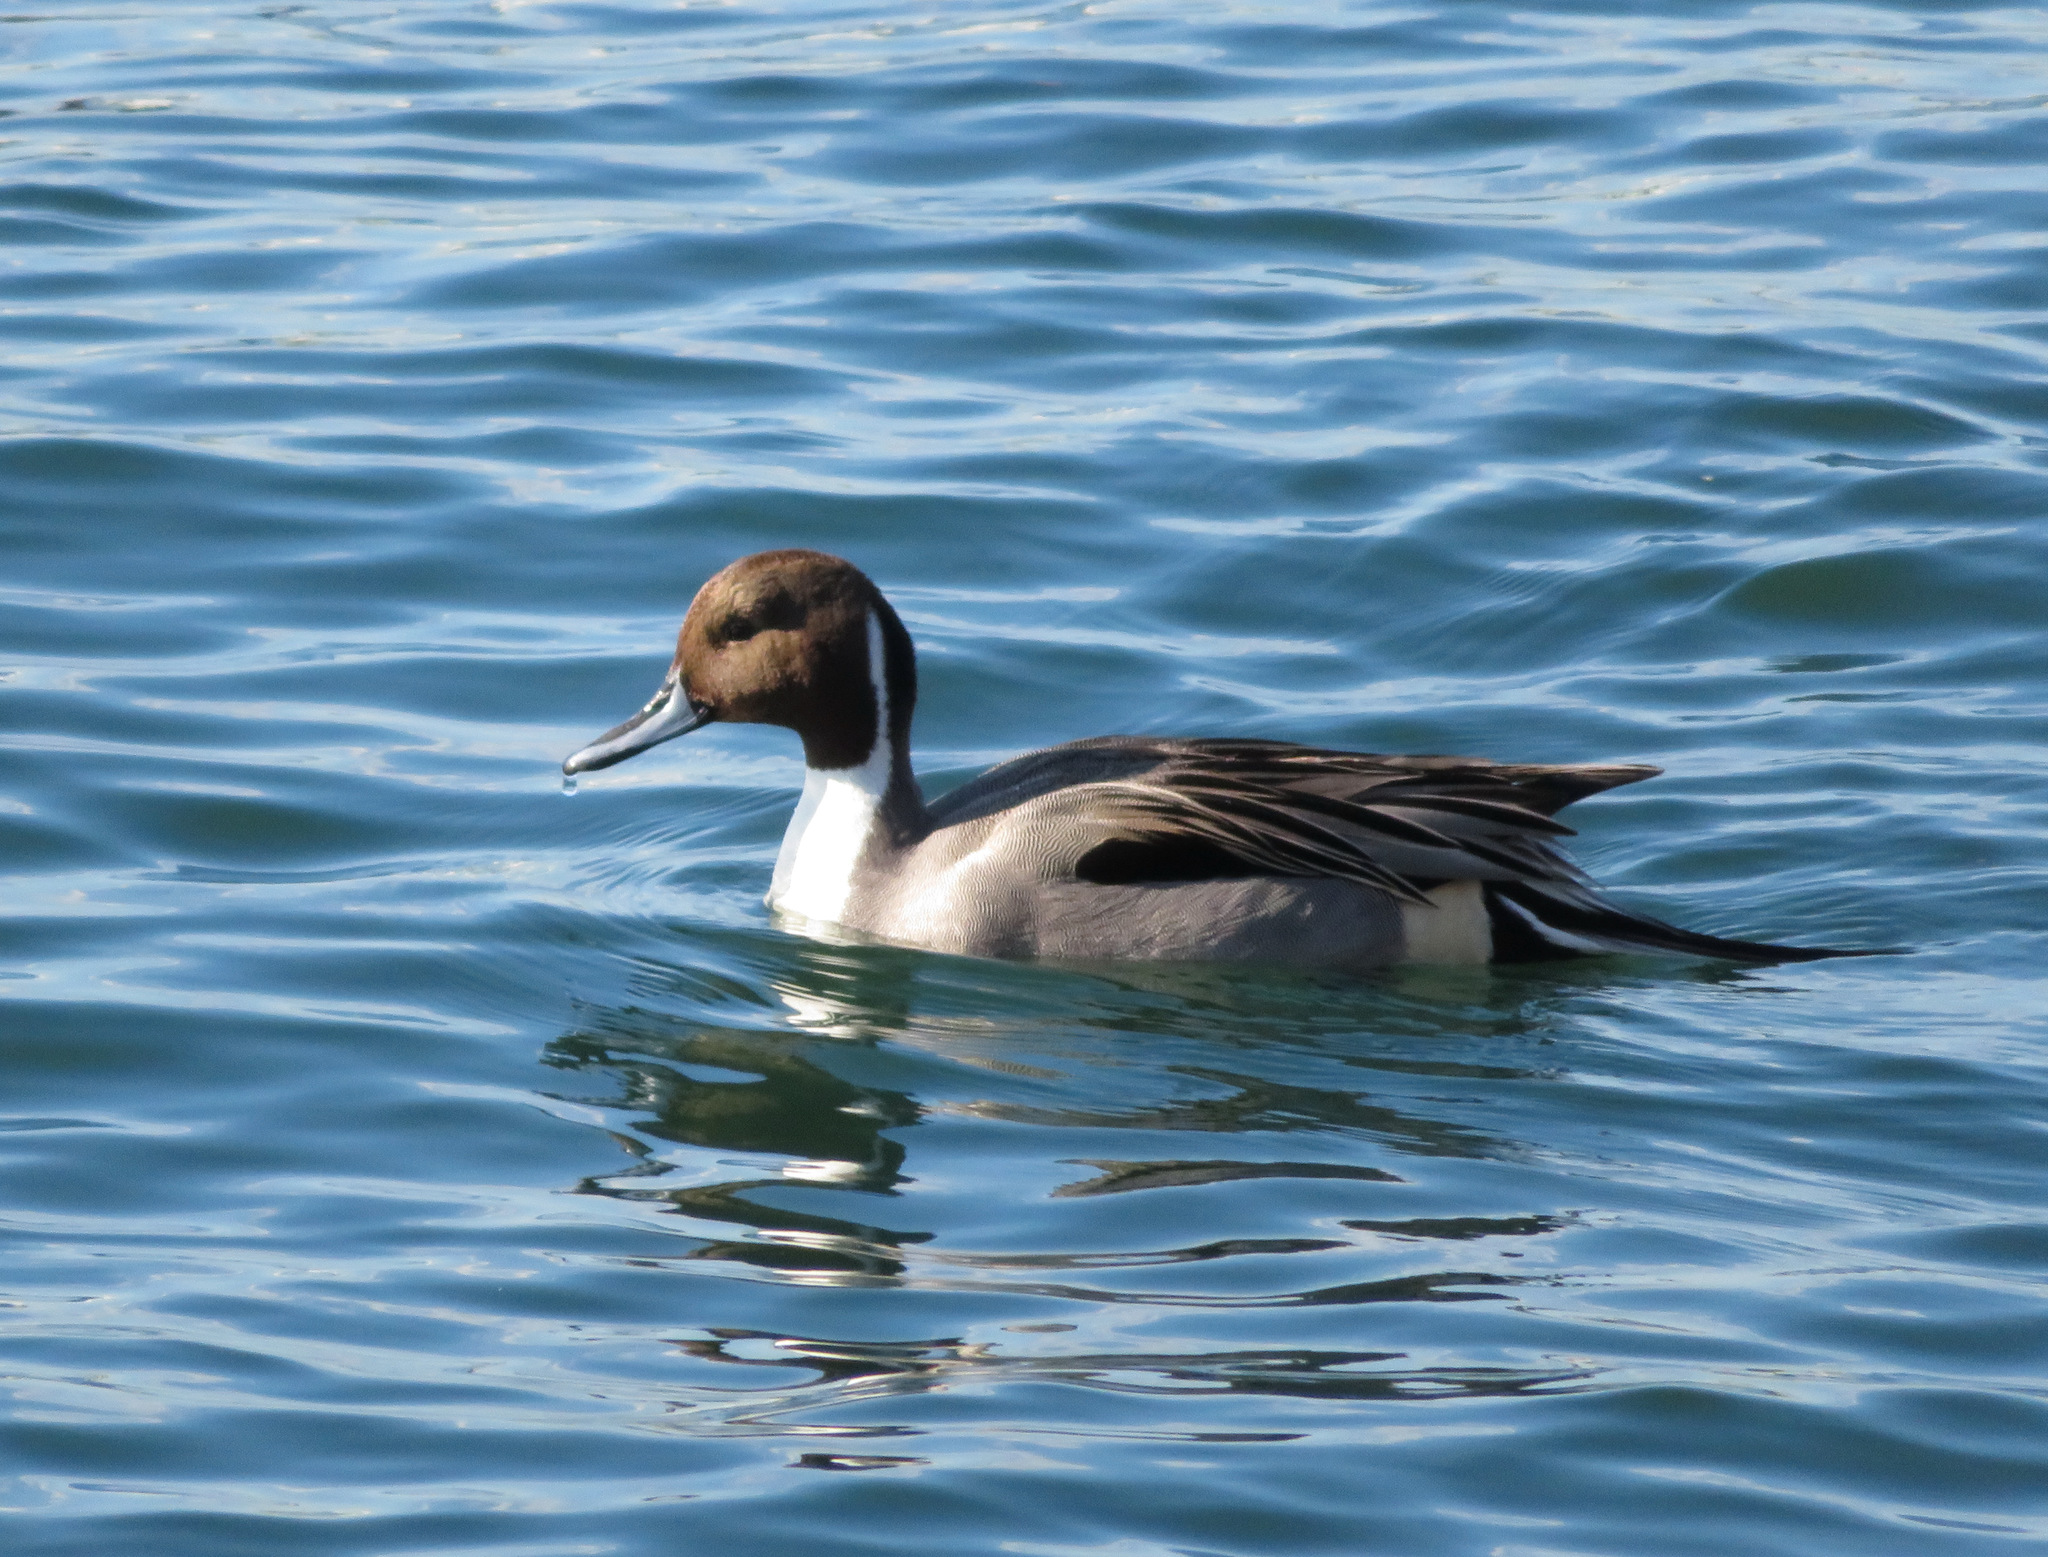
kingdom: Animalia
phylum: Chordata
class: Aves
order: Anseriformes
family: Anatidae
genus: Anas
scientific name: Anas acuta
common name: Northern pintail
